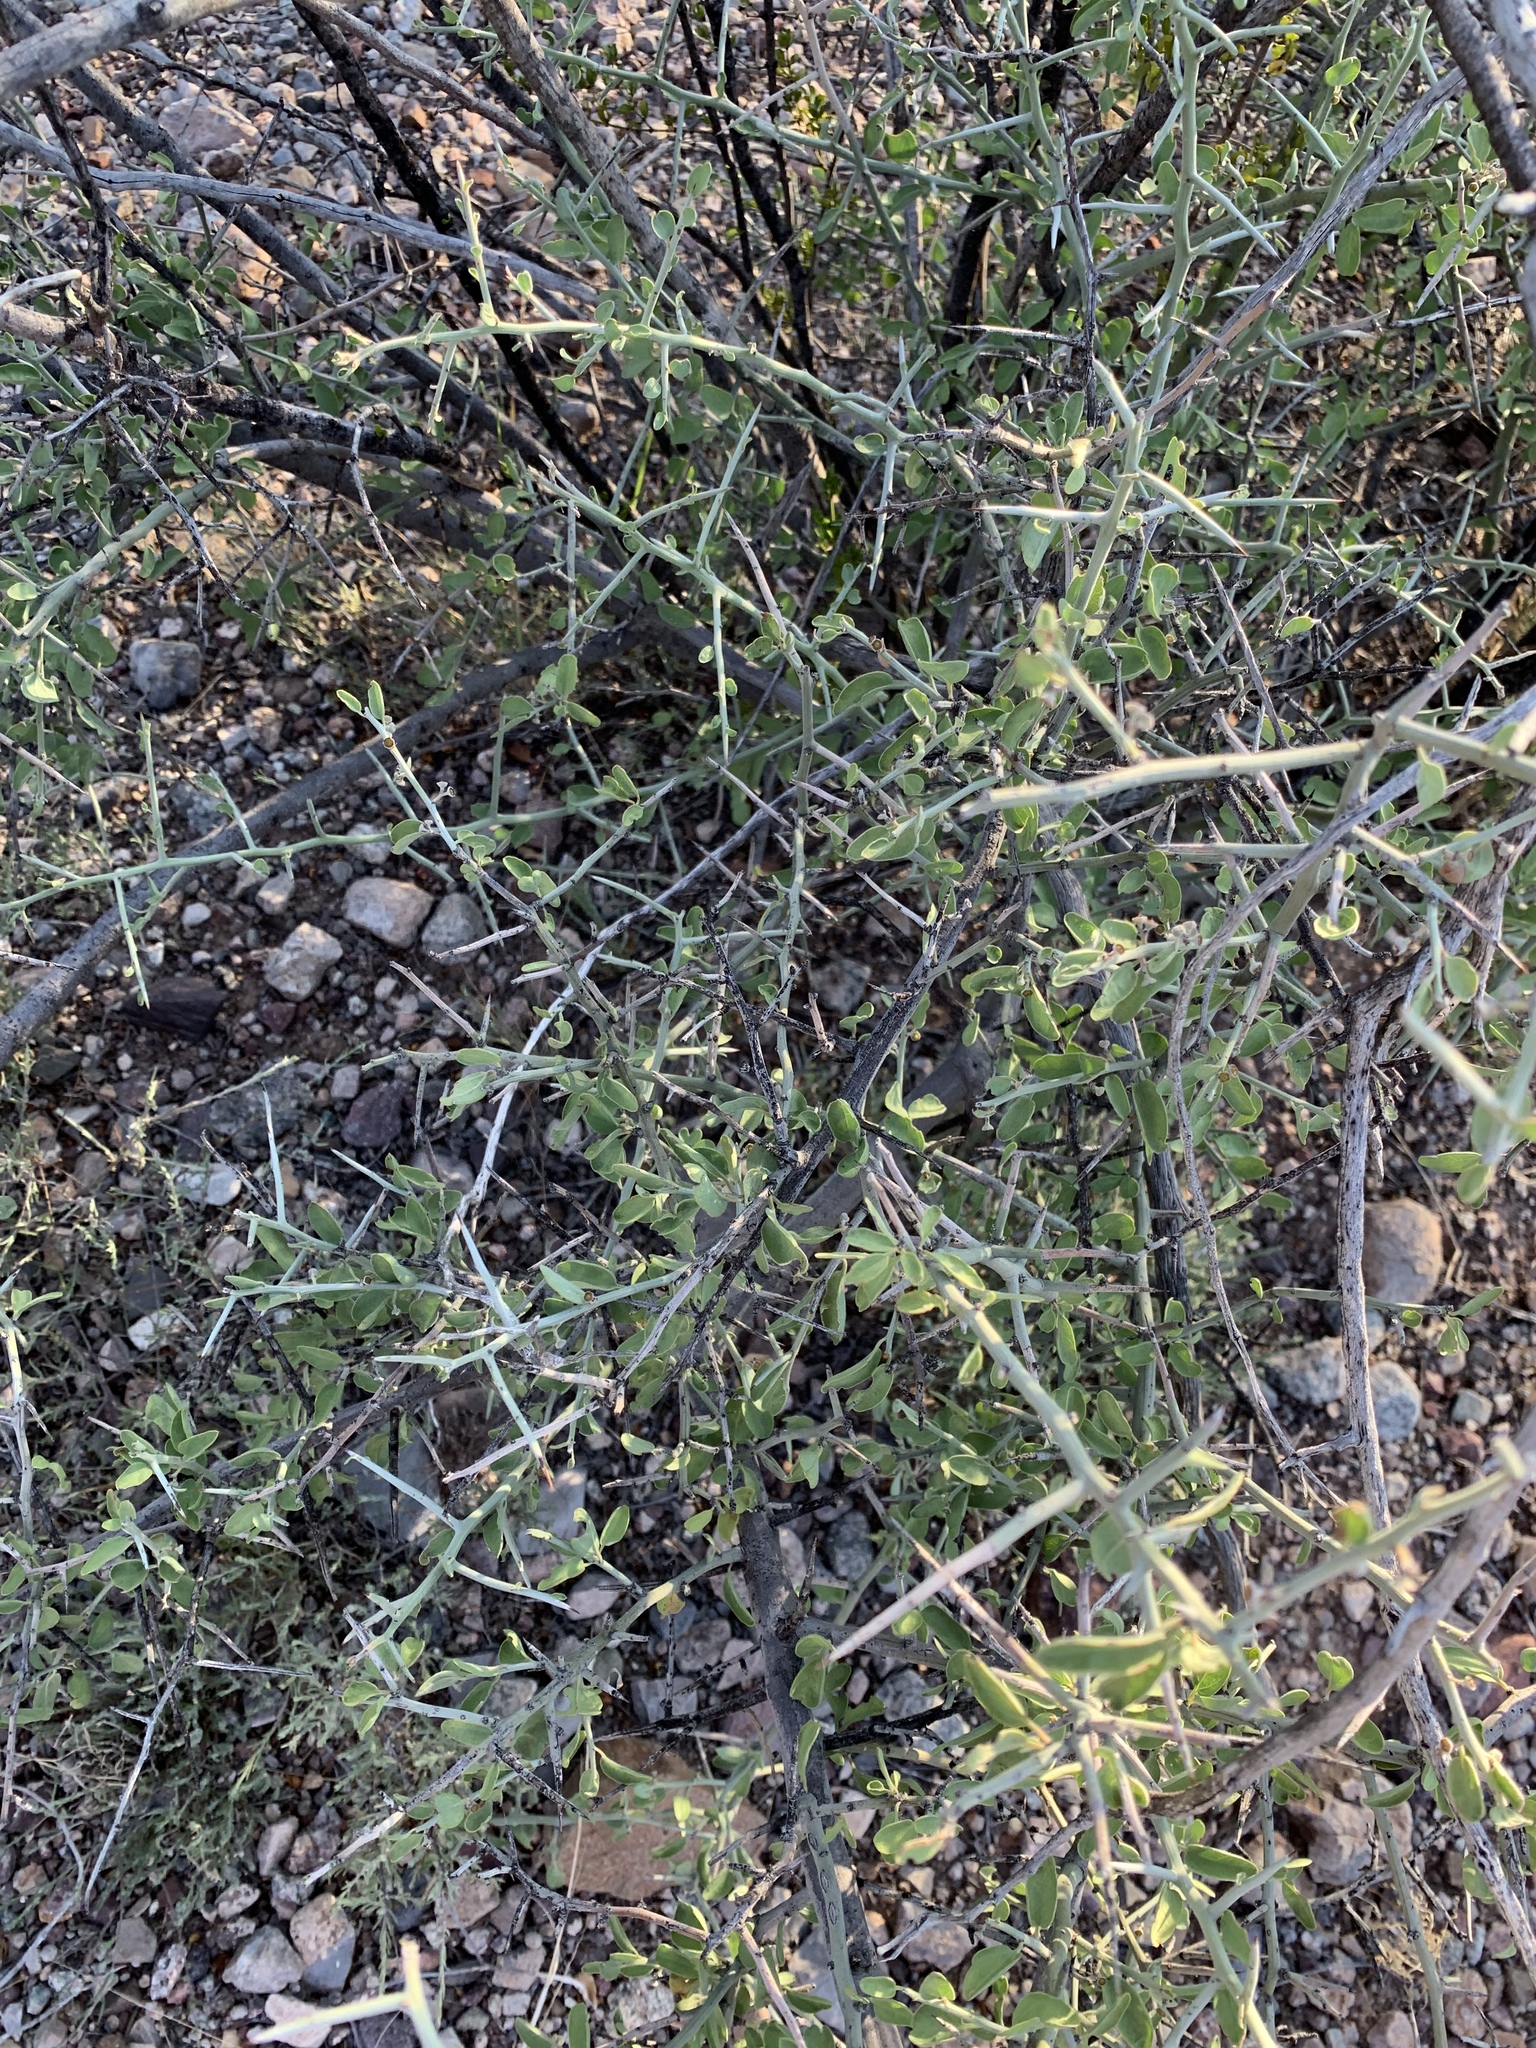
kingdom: Plantae
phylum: Tracheophyta
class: Magnoliopsida
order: Rosales
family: Rhamnaceae
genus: Sarcomphalus
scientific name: Sarcomphalus obtusifolius
